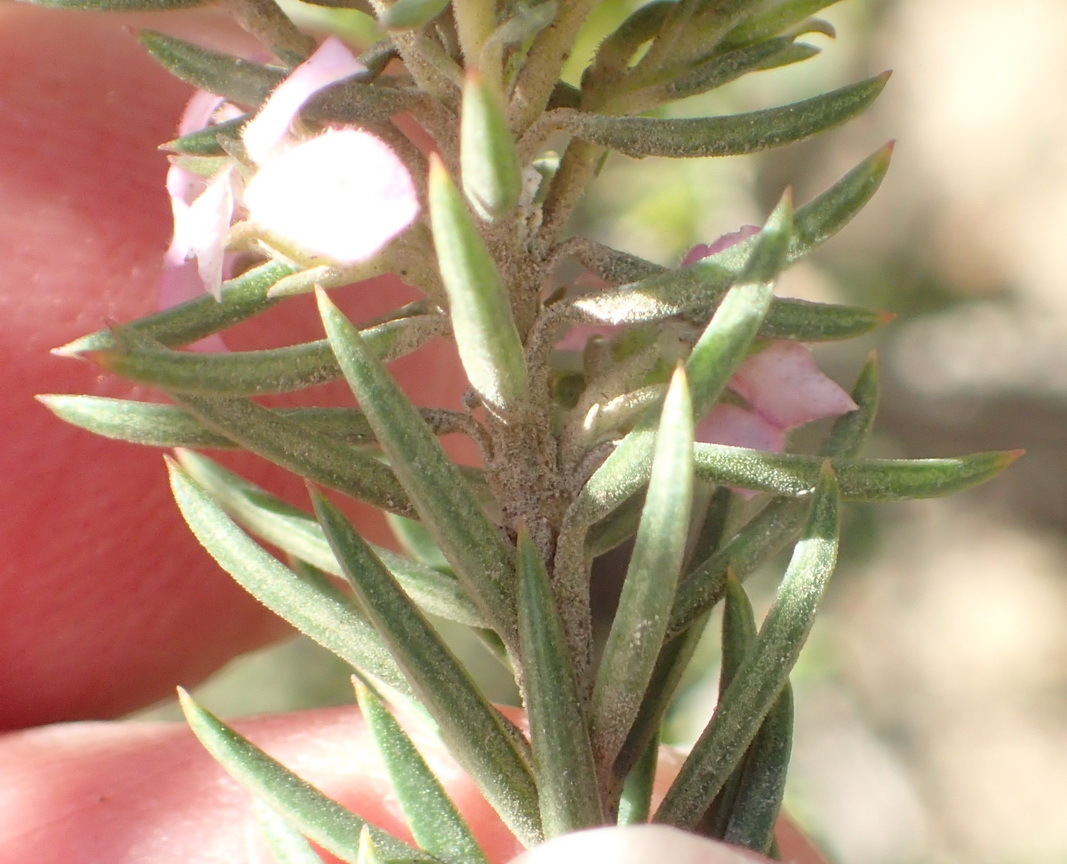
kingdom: Plantae
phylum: Tracheophyta
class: Magnoliopsida
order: Sapindales
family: Rutaceae
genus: Acmadenia
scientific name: Acmadenia alternifolia
